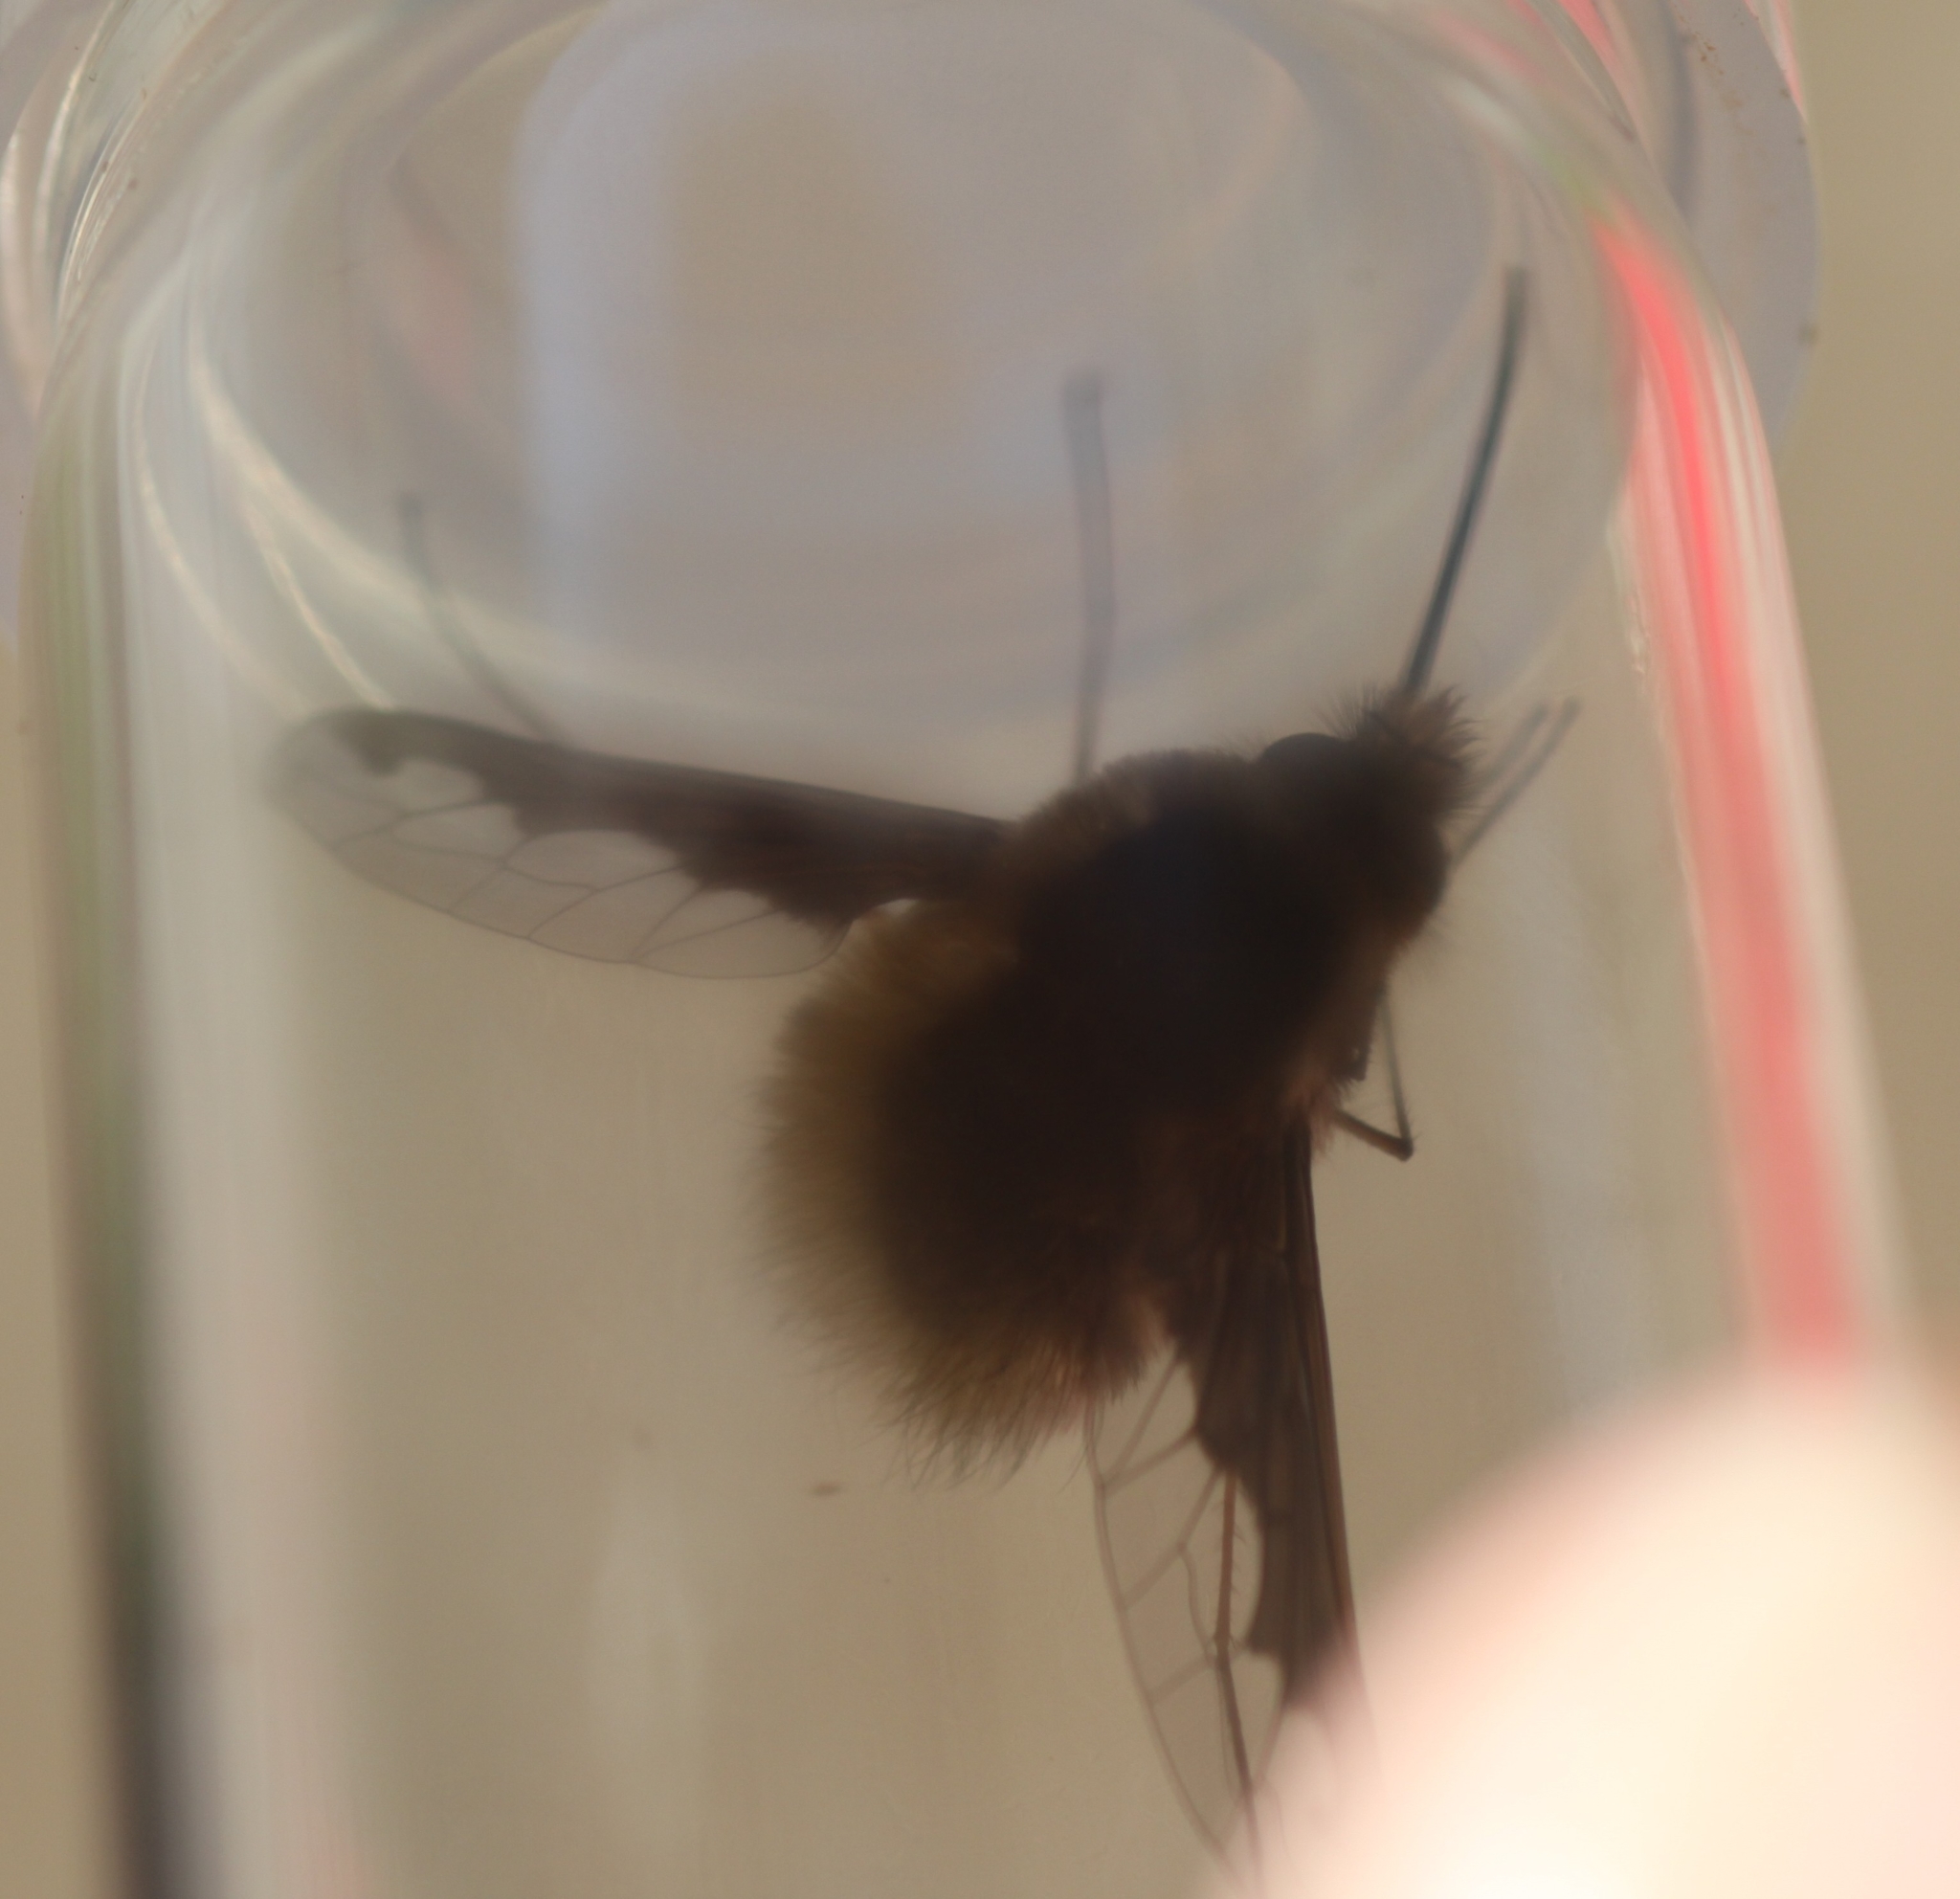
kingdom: Animalia
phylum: Arthropoda
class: Insecta
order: Diptera
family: Bombyliidae
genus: Bombylius
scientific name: Bombylius major
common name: Bee fly
